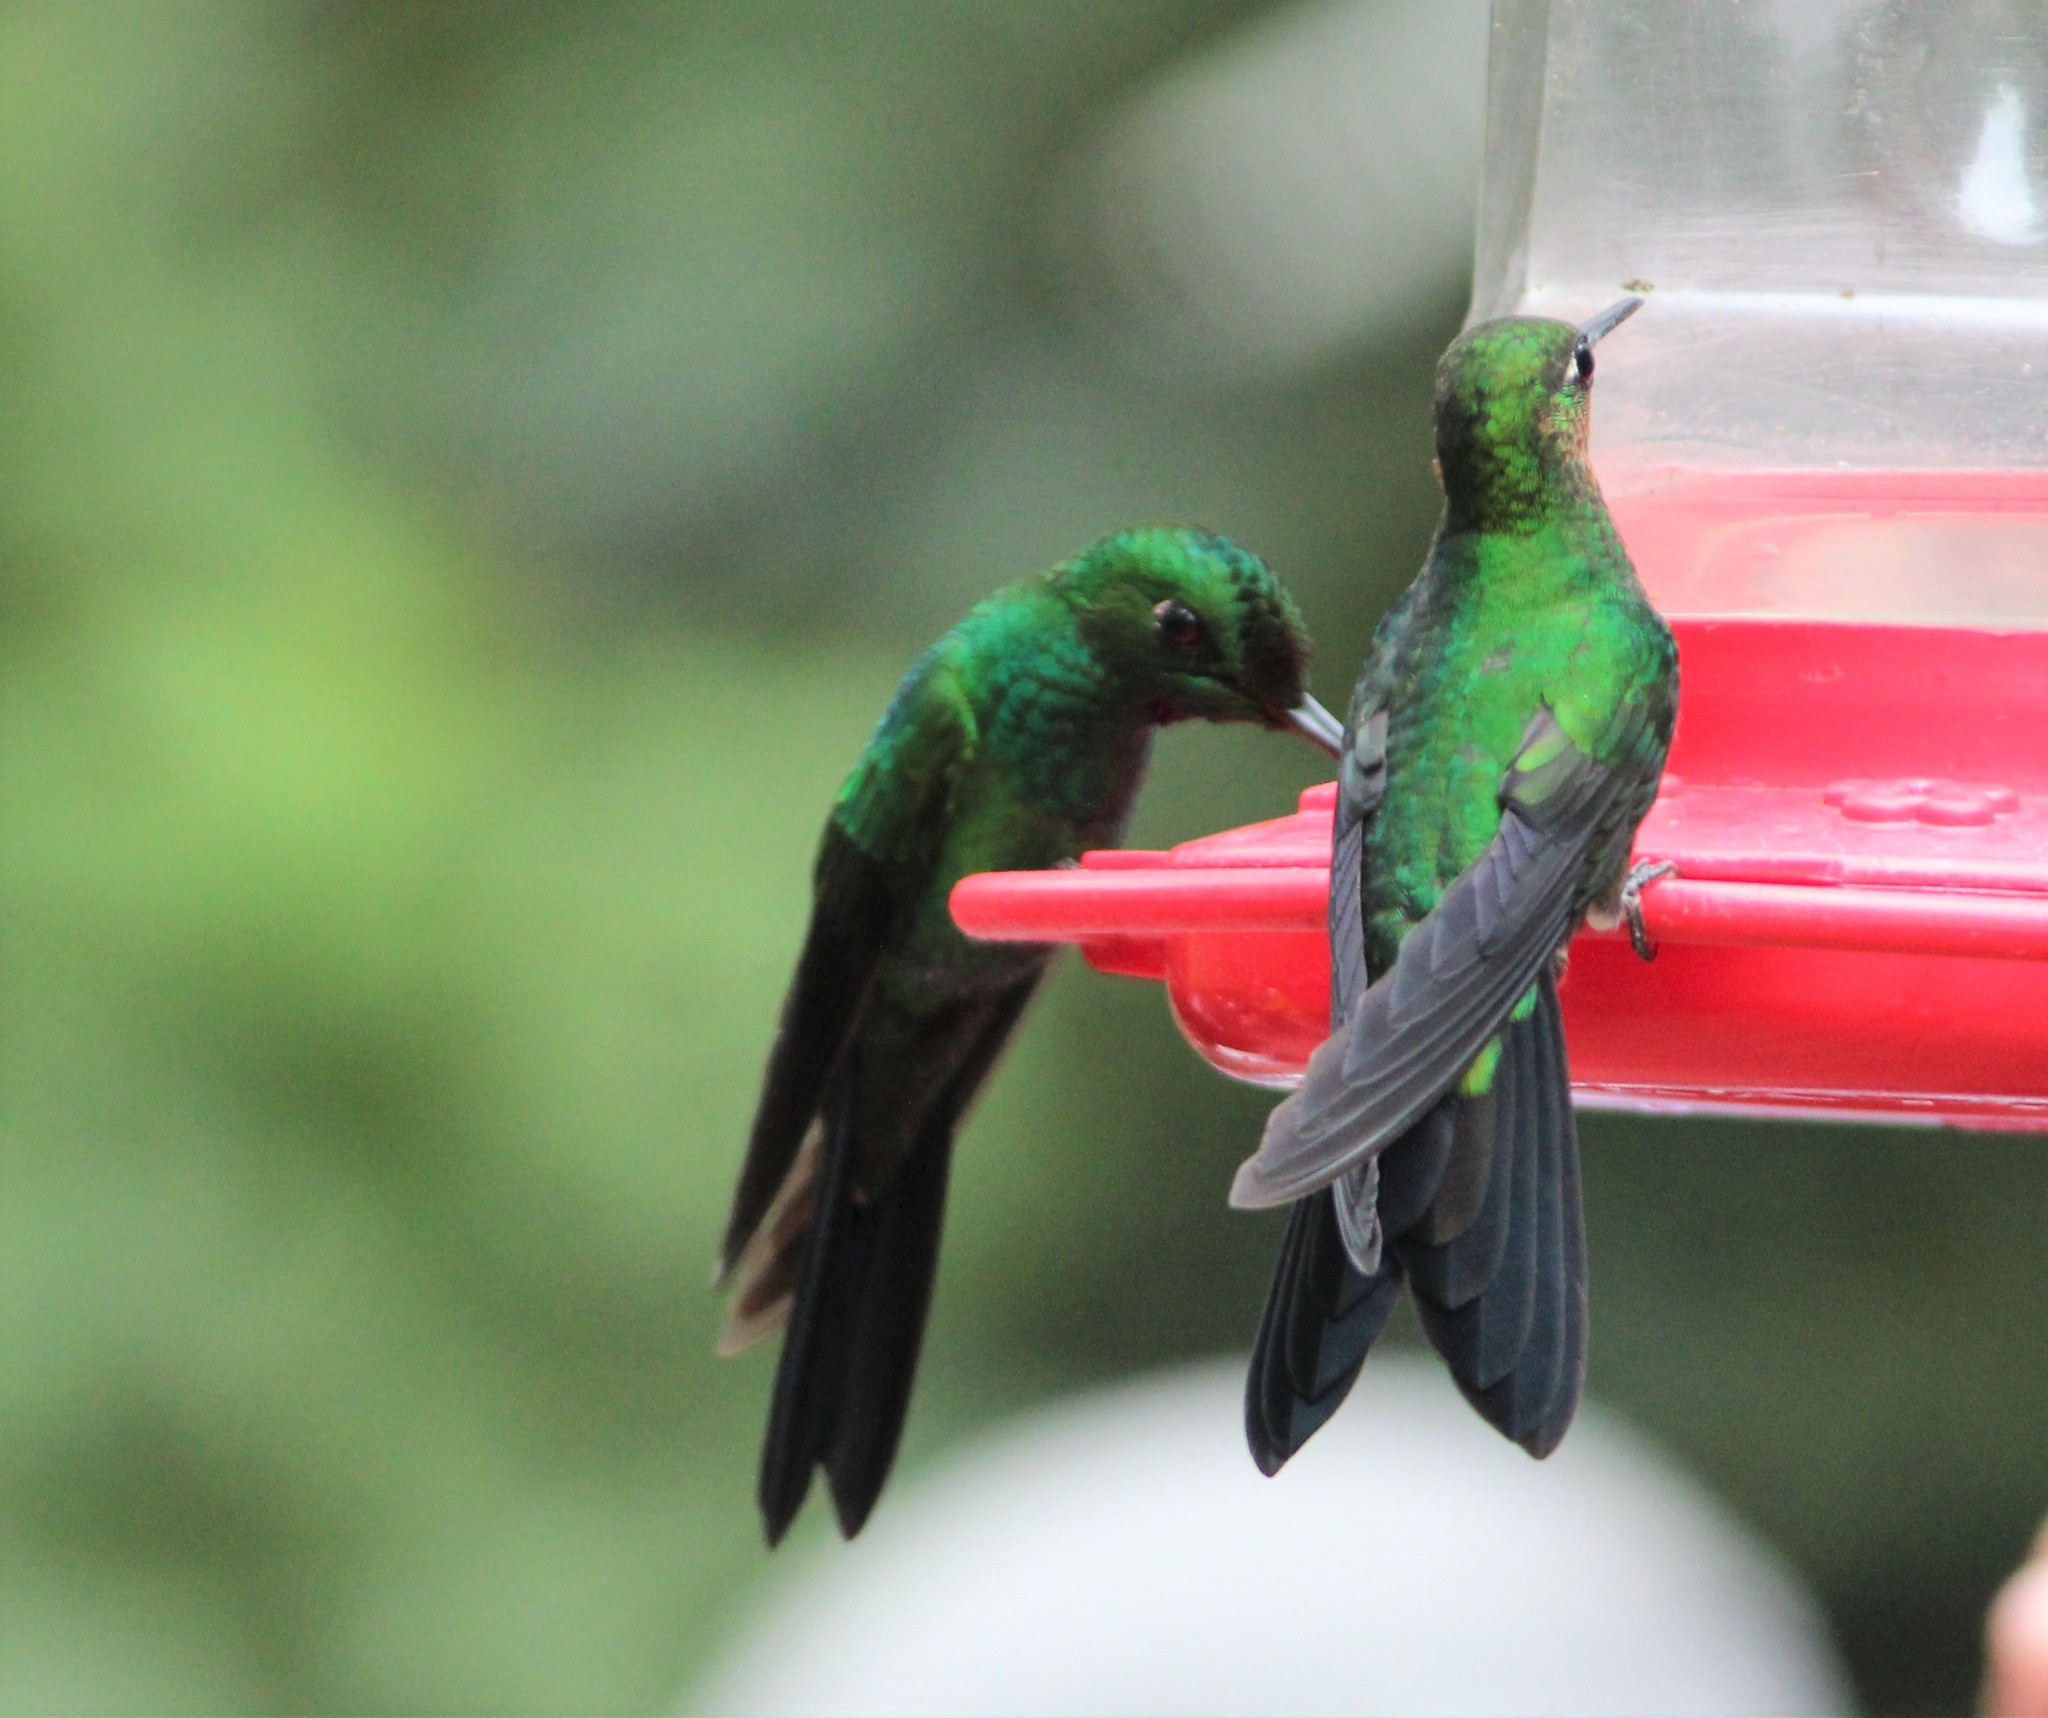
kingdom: Animalia
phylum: Chordata
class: Aves
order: Apodiformes
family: Trochilidae
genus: Heliodoxa
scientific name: Heliodoxa jacula
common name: Green-crowned brilliant
